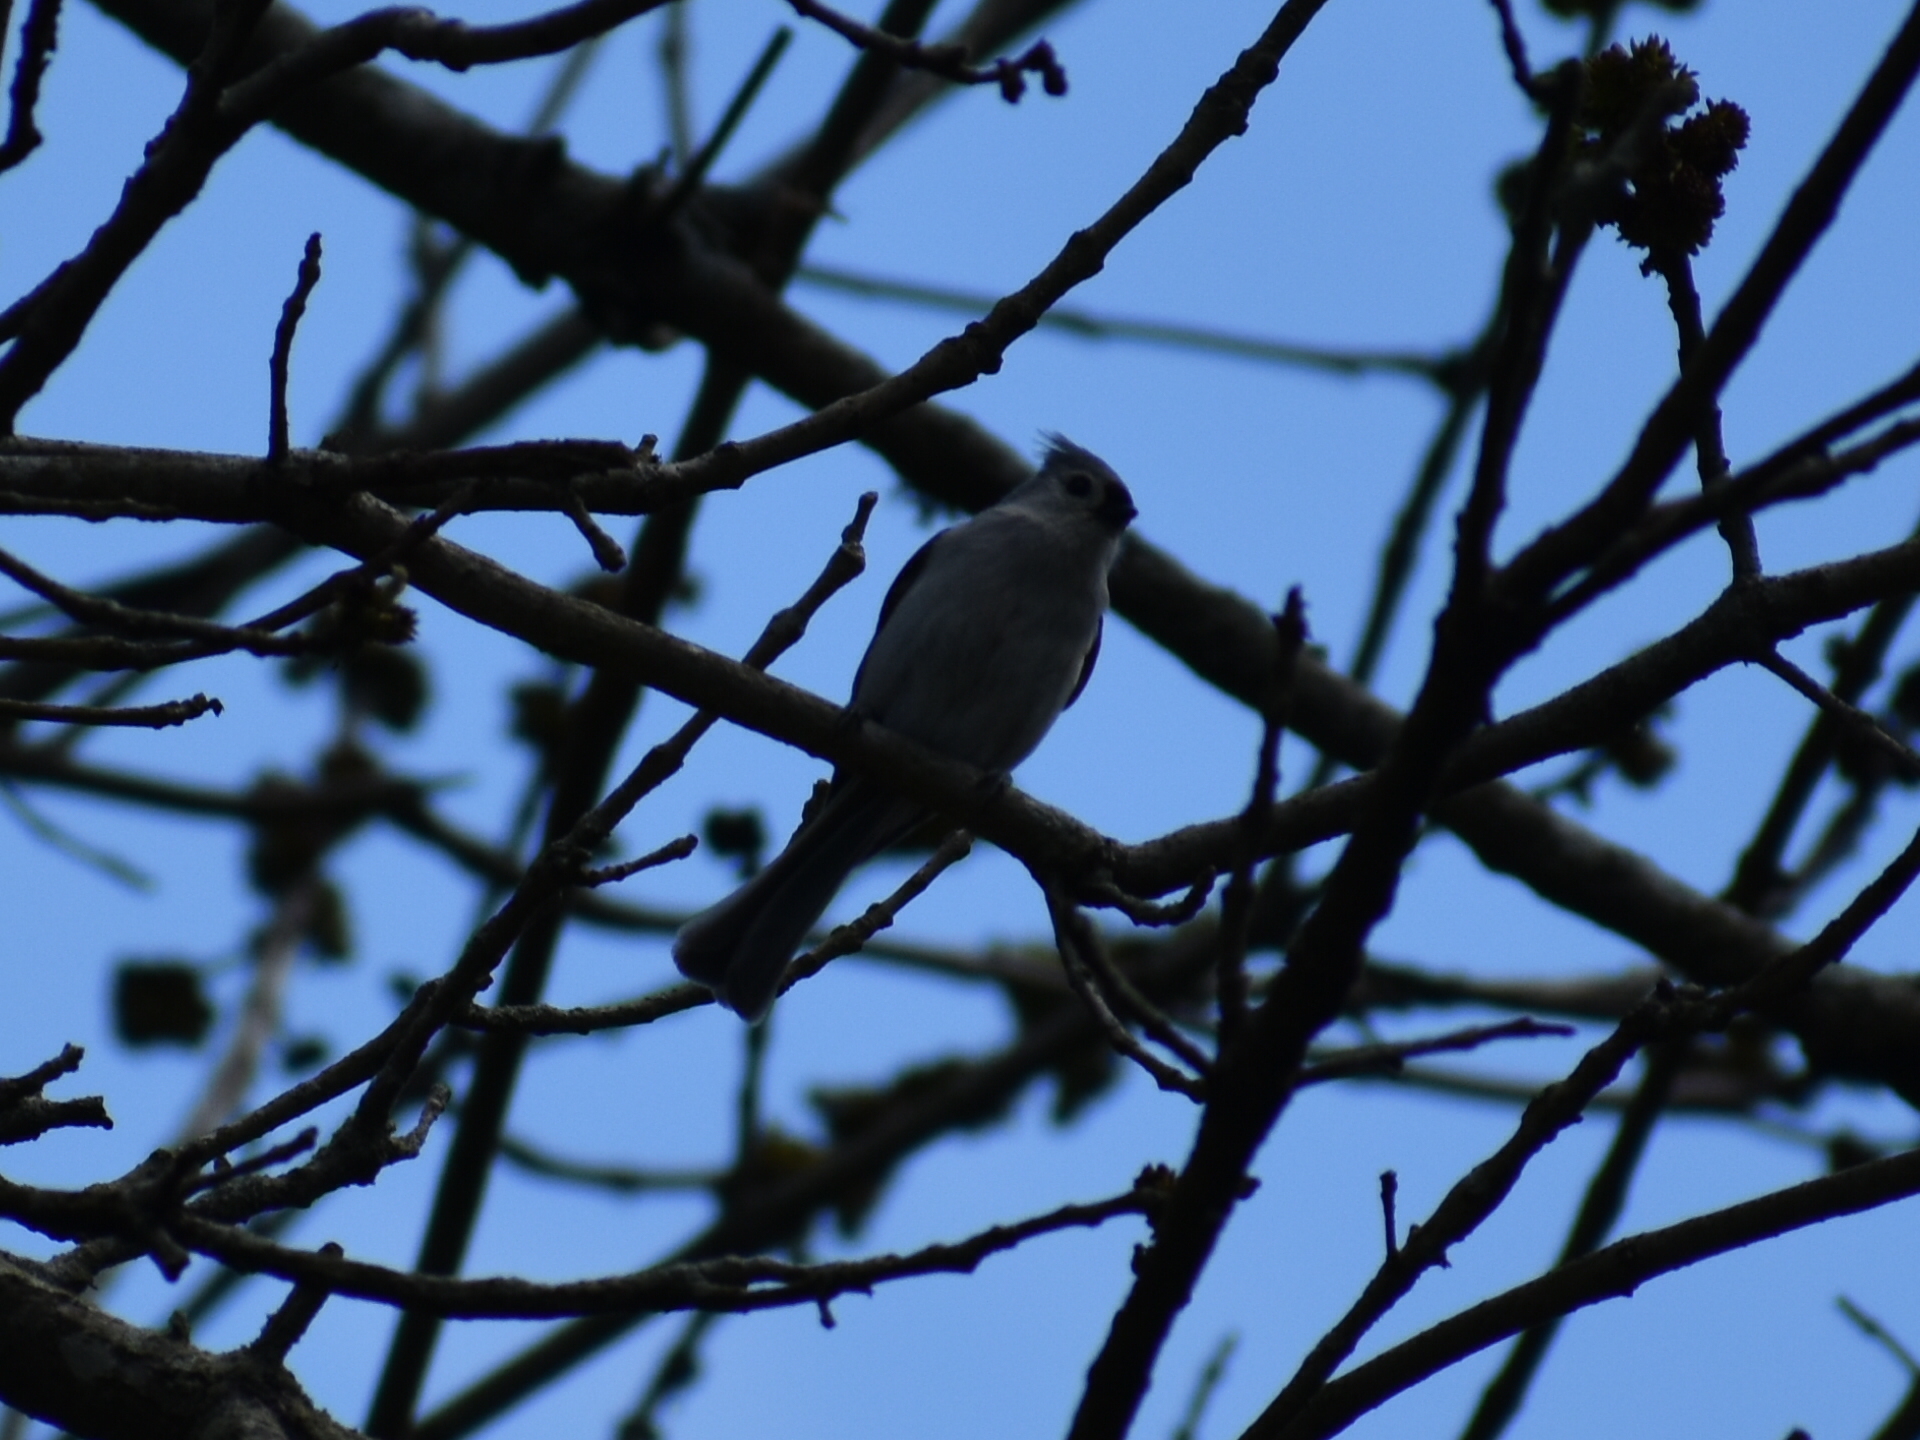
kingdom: Animalia
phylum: Chordata
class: Aves
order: Passeriformes
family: Paridae
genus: Baeolophus
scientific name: Baeolophus bicolor
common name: Tufted titmouse
